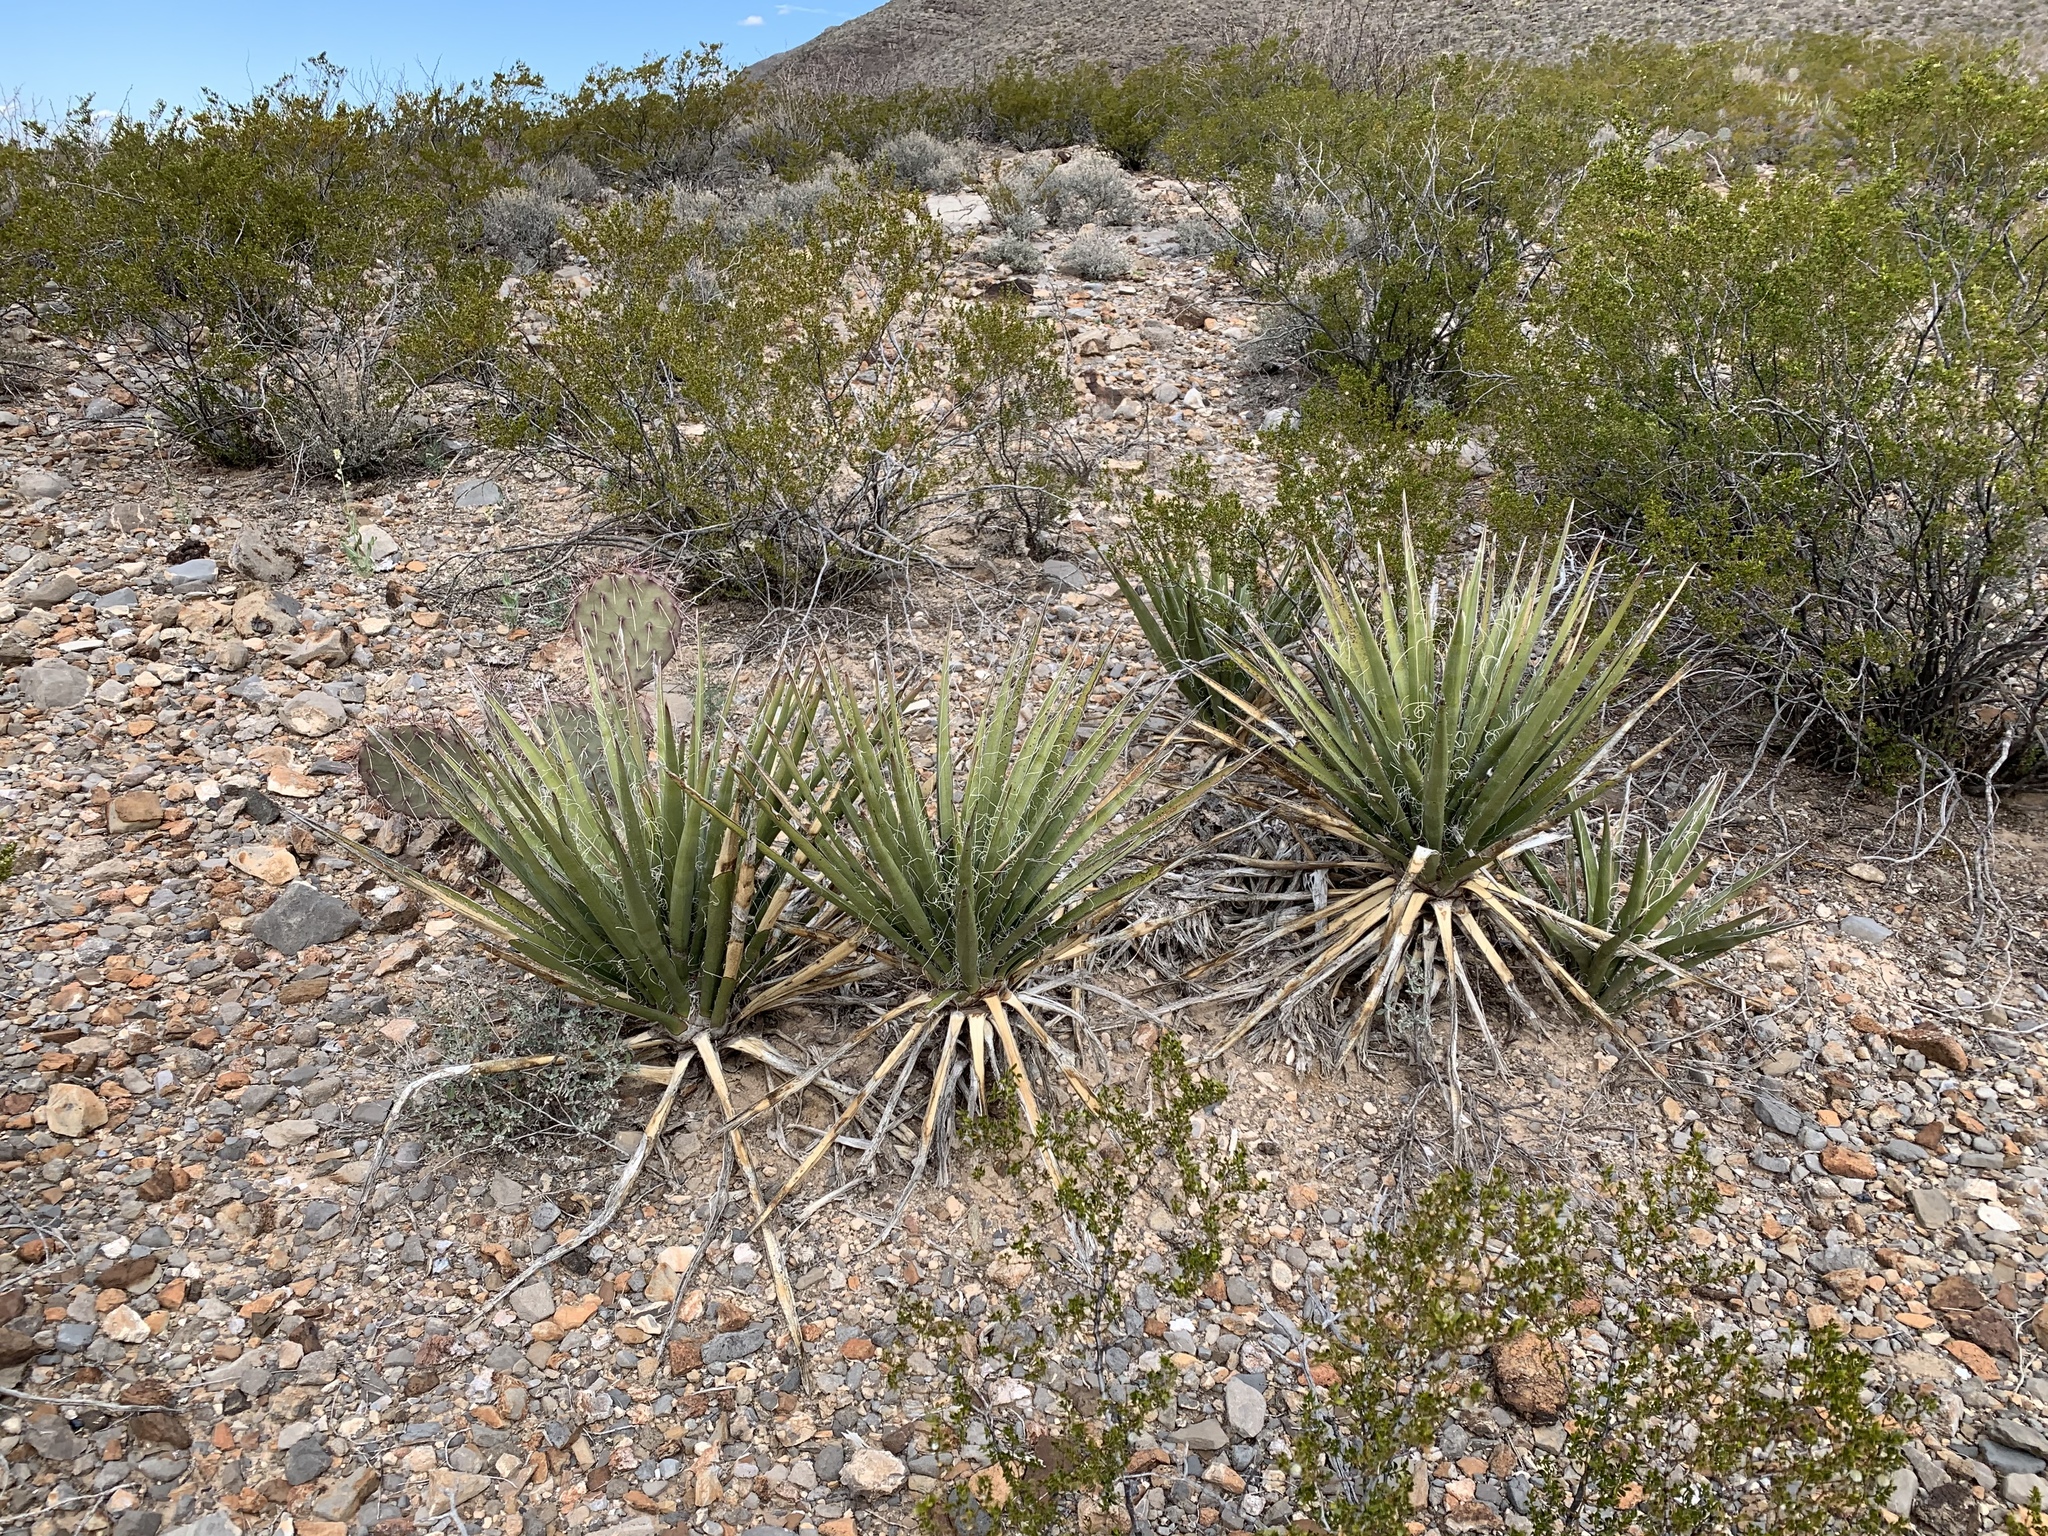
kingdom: Plantae
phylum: Tracheophyta
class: Liliopsida
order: Asparagales
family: Asparagaceae
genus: Yucca
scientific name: Yucca baccata
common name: Banana yucca
